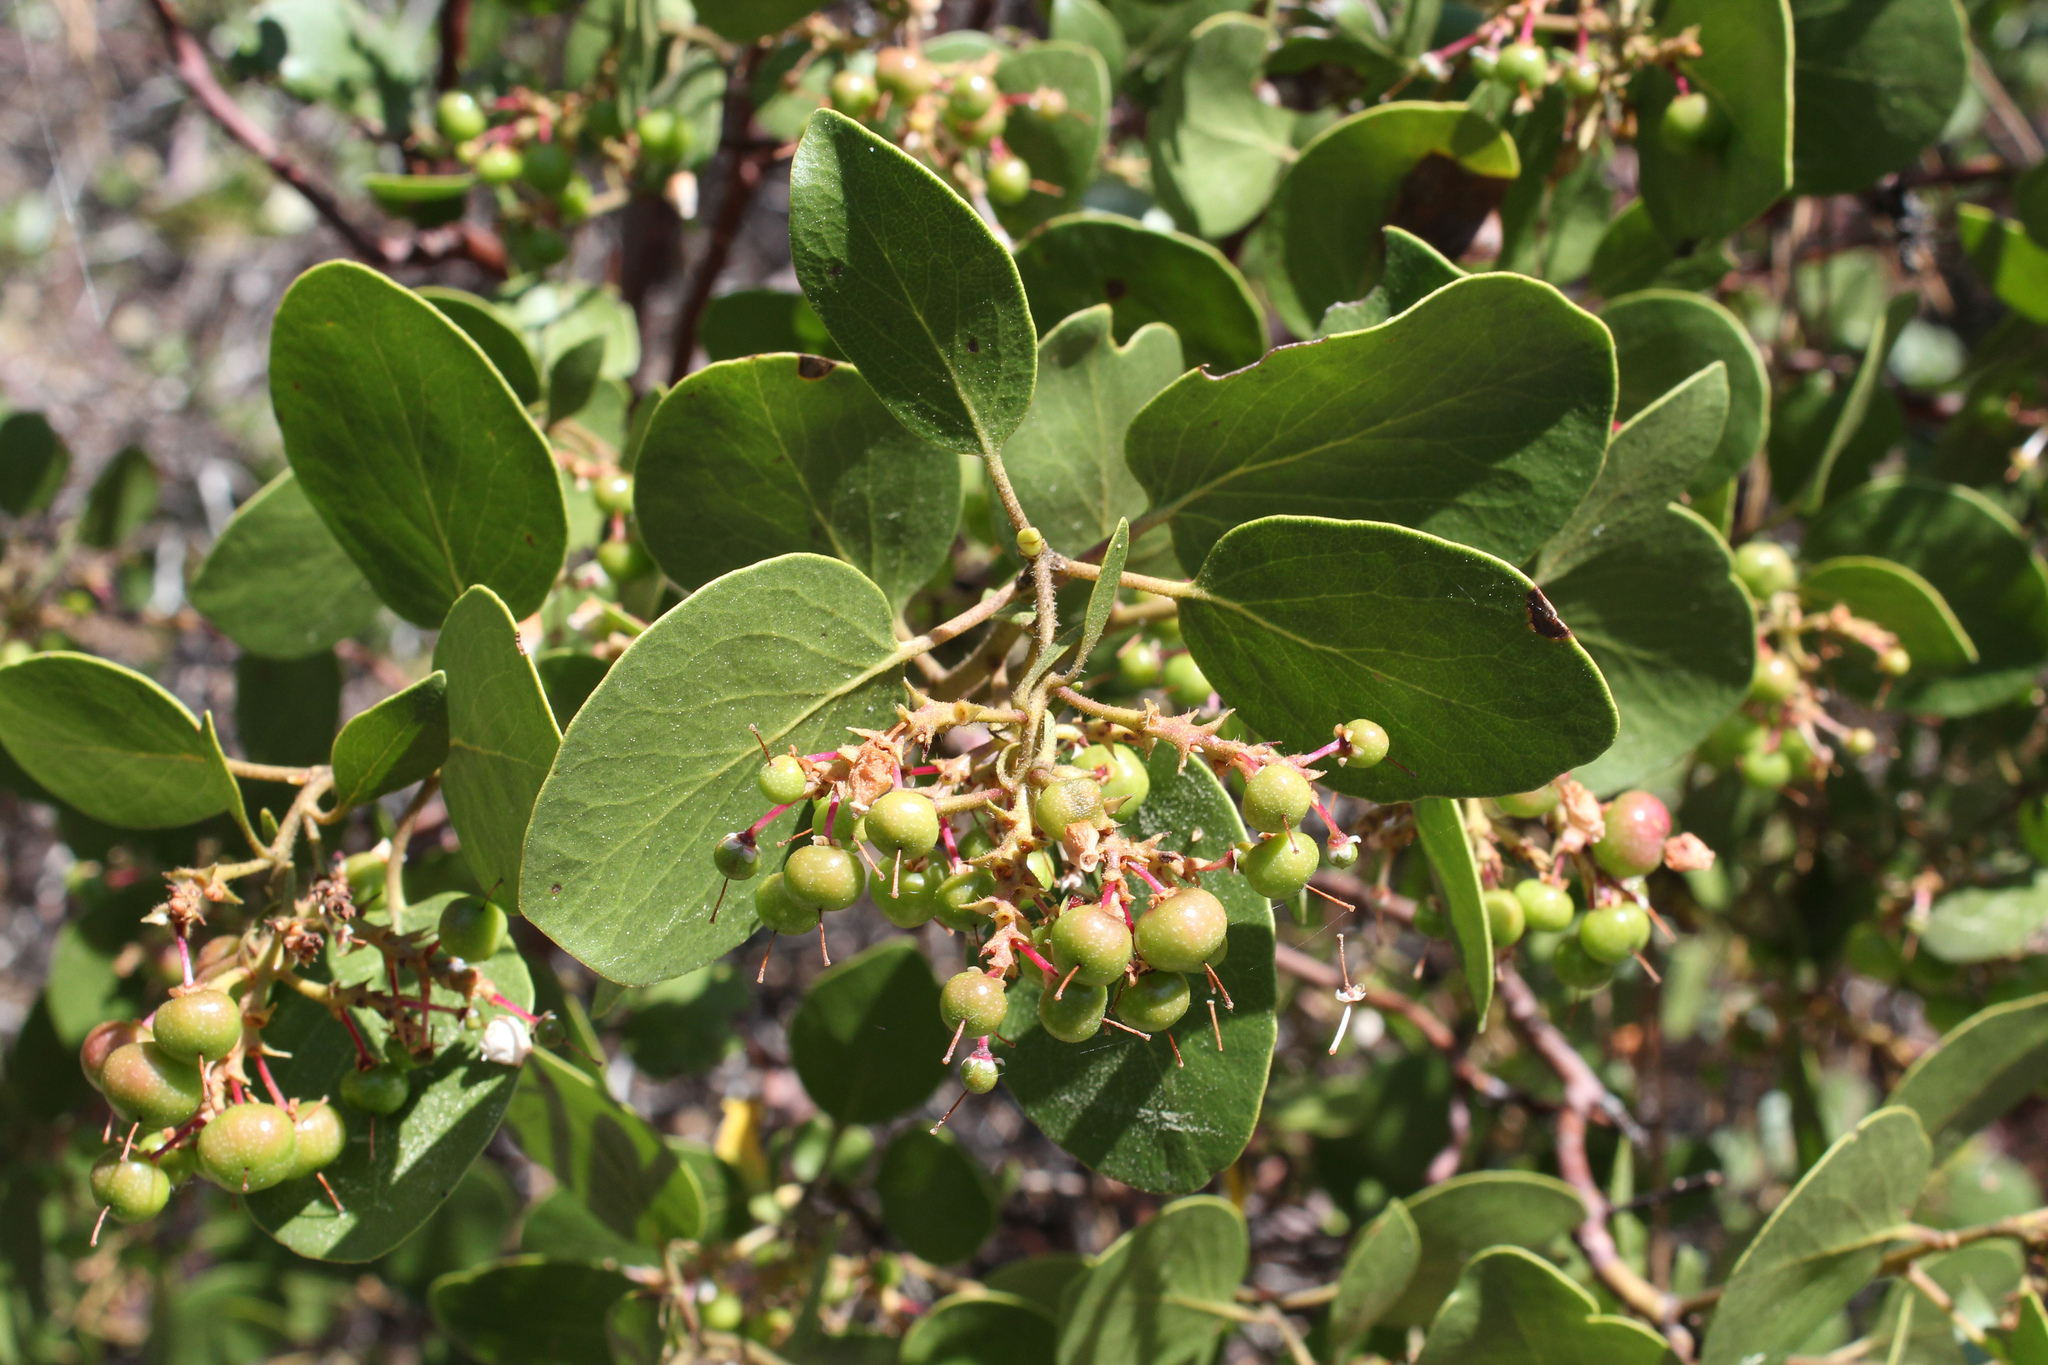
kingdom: Plantae
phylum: Tracheophyta
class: Magnoliopsida
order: Ericales
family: Ericaceae
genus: Arctostaphylos
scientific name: Arctostaphylos patula
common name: Green-leaf manzanita
